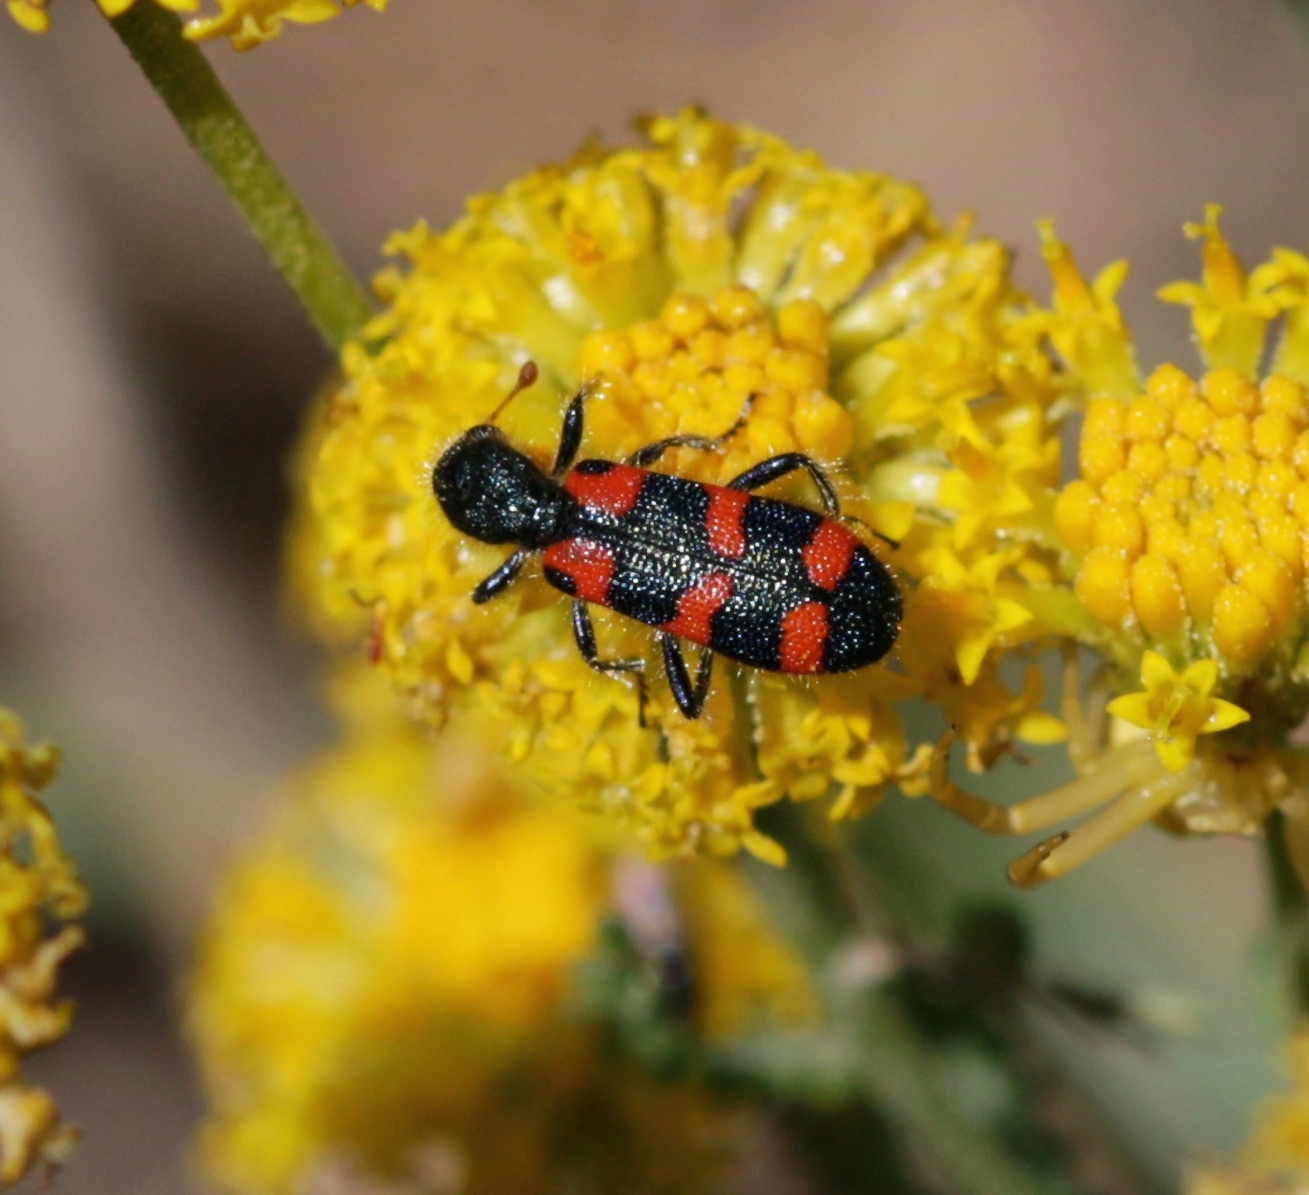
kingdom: Animalia
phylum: Arthropoda
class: Insecta
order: Coleoptera
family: Cleridae
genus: Trichodes
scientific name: Trichodes leucopsideus
